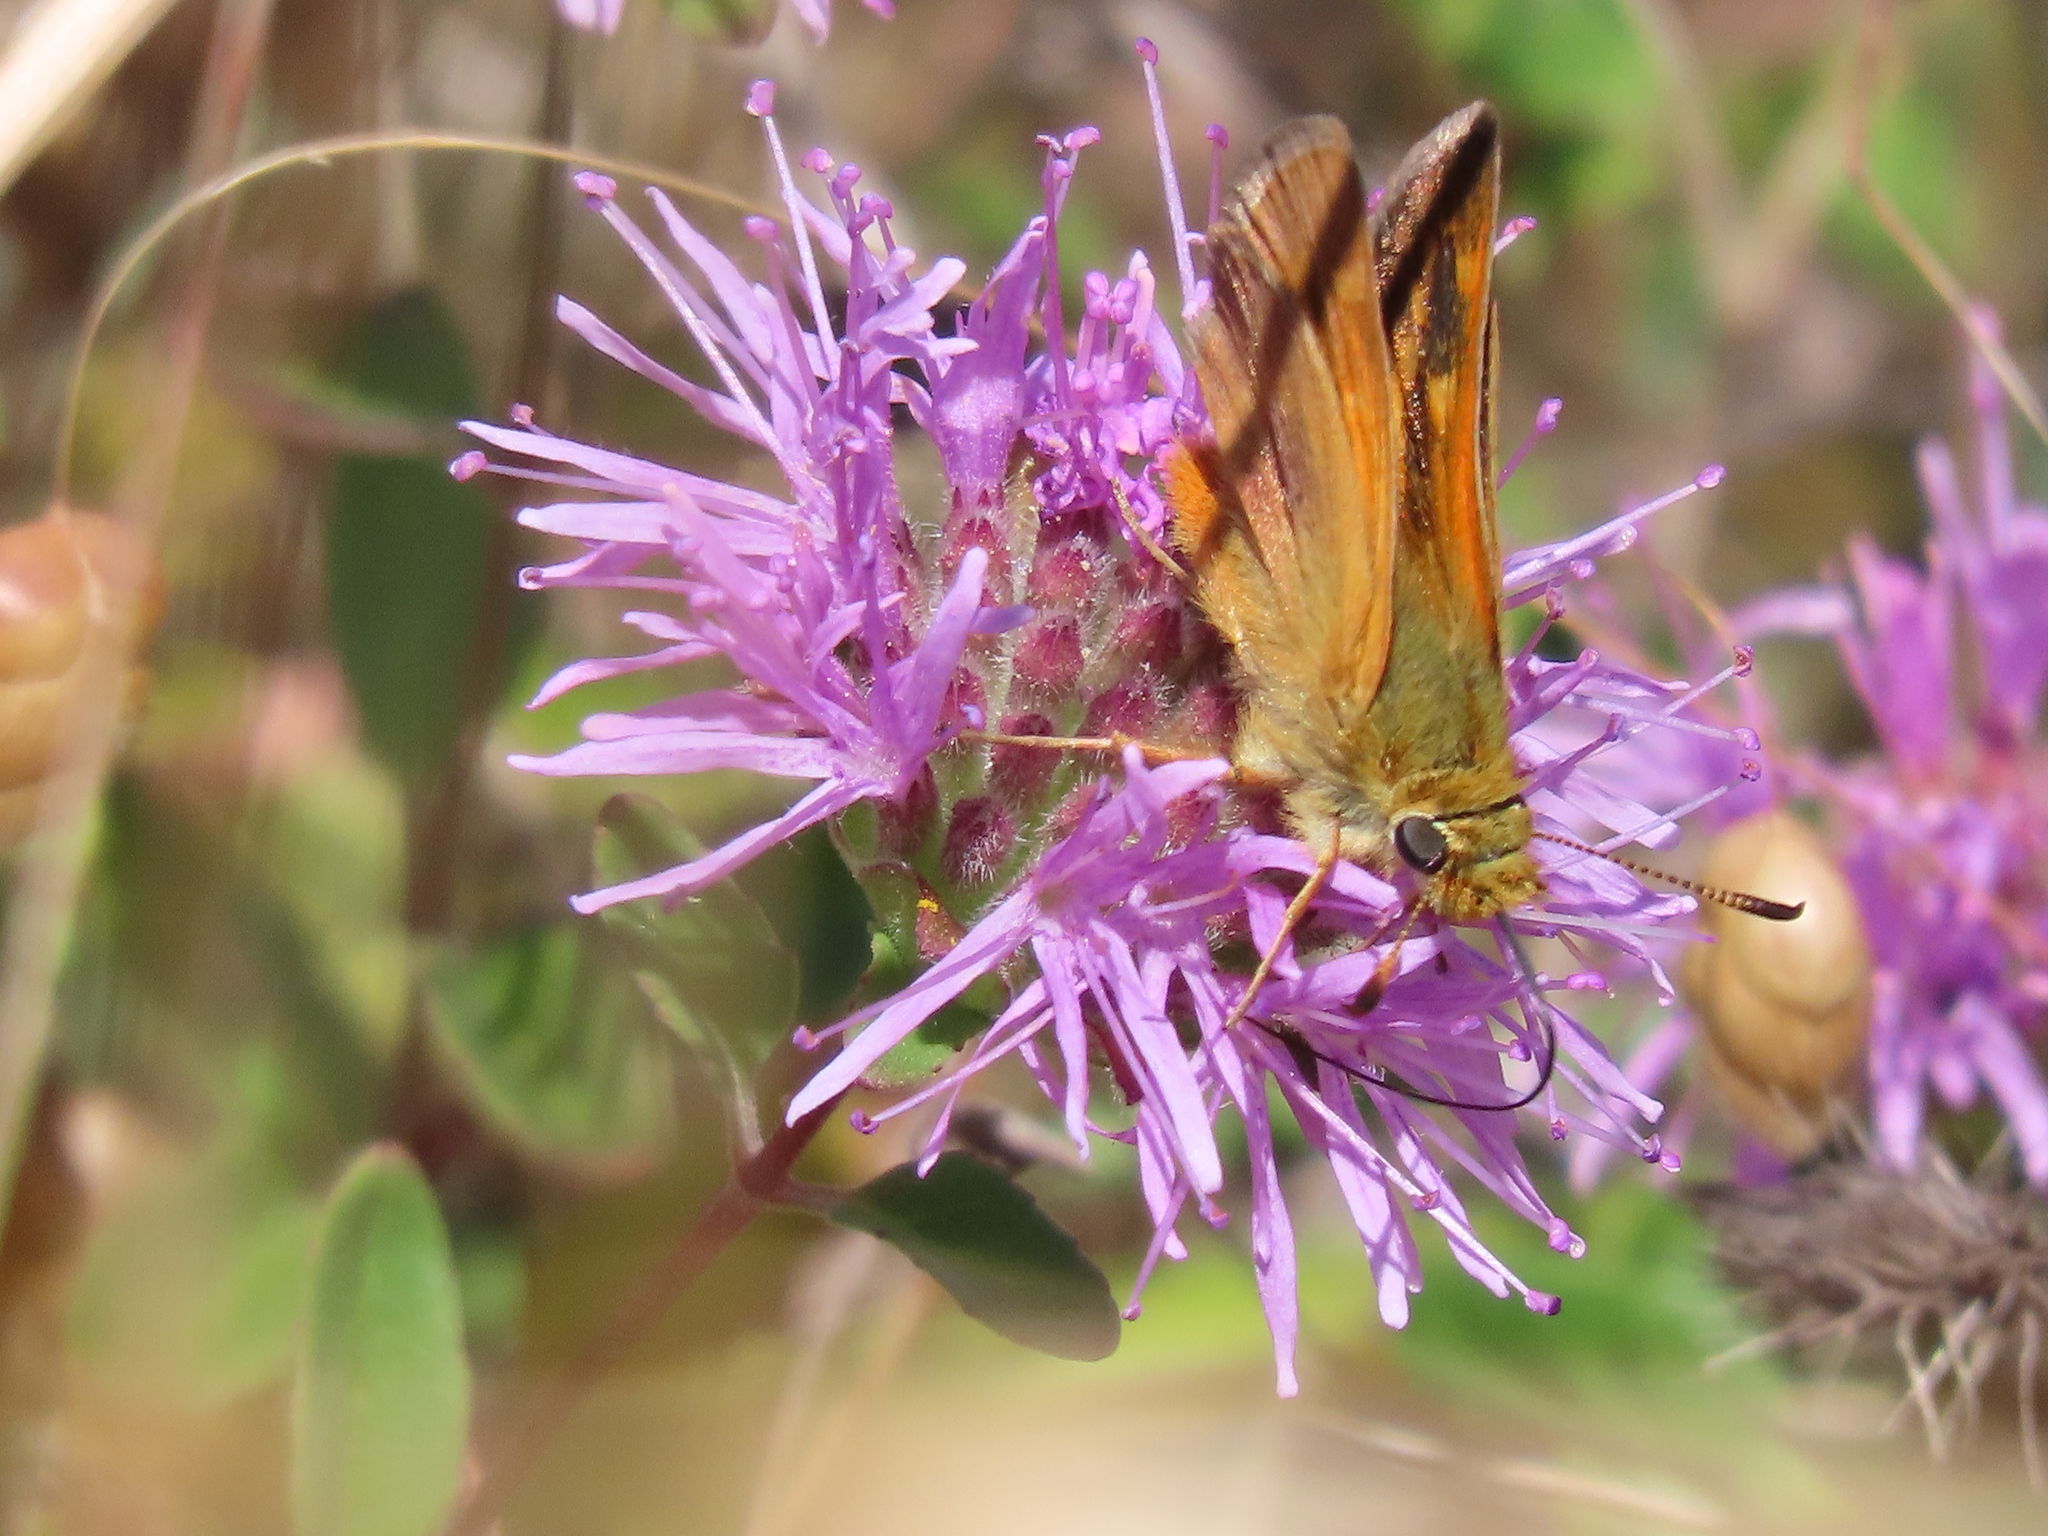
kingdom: Animalia
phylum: Arthropoda
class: Insecta
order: Lepidoptera
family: Hesperiidae
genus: Ochlodes
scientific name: Ochlodes agricola
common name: Rural skipper
